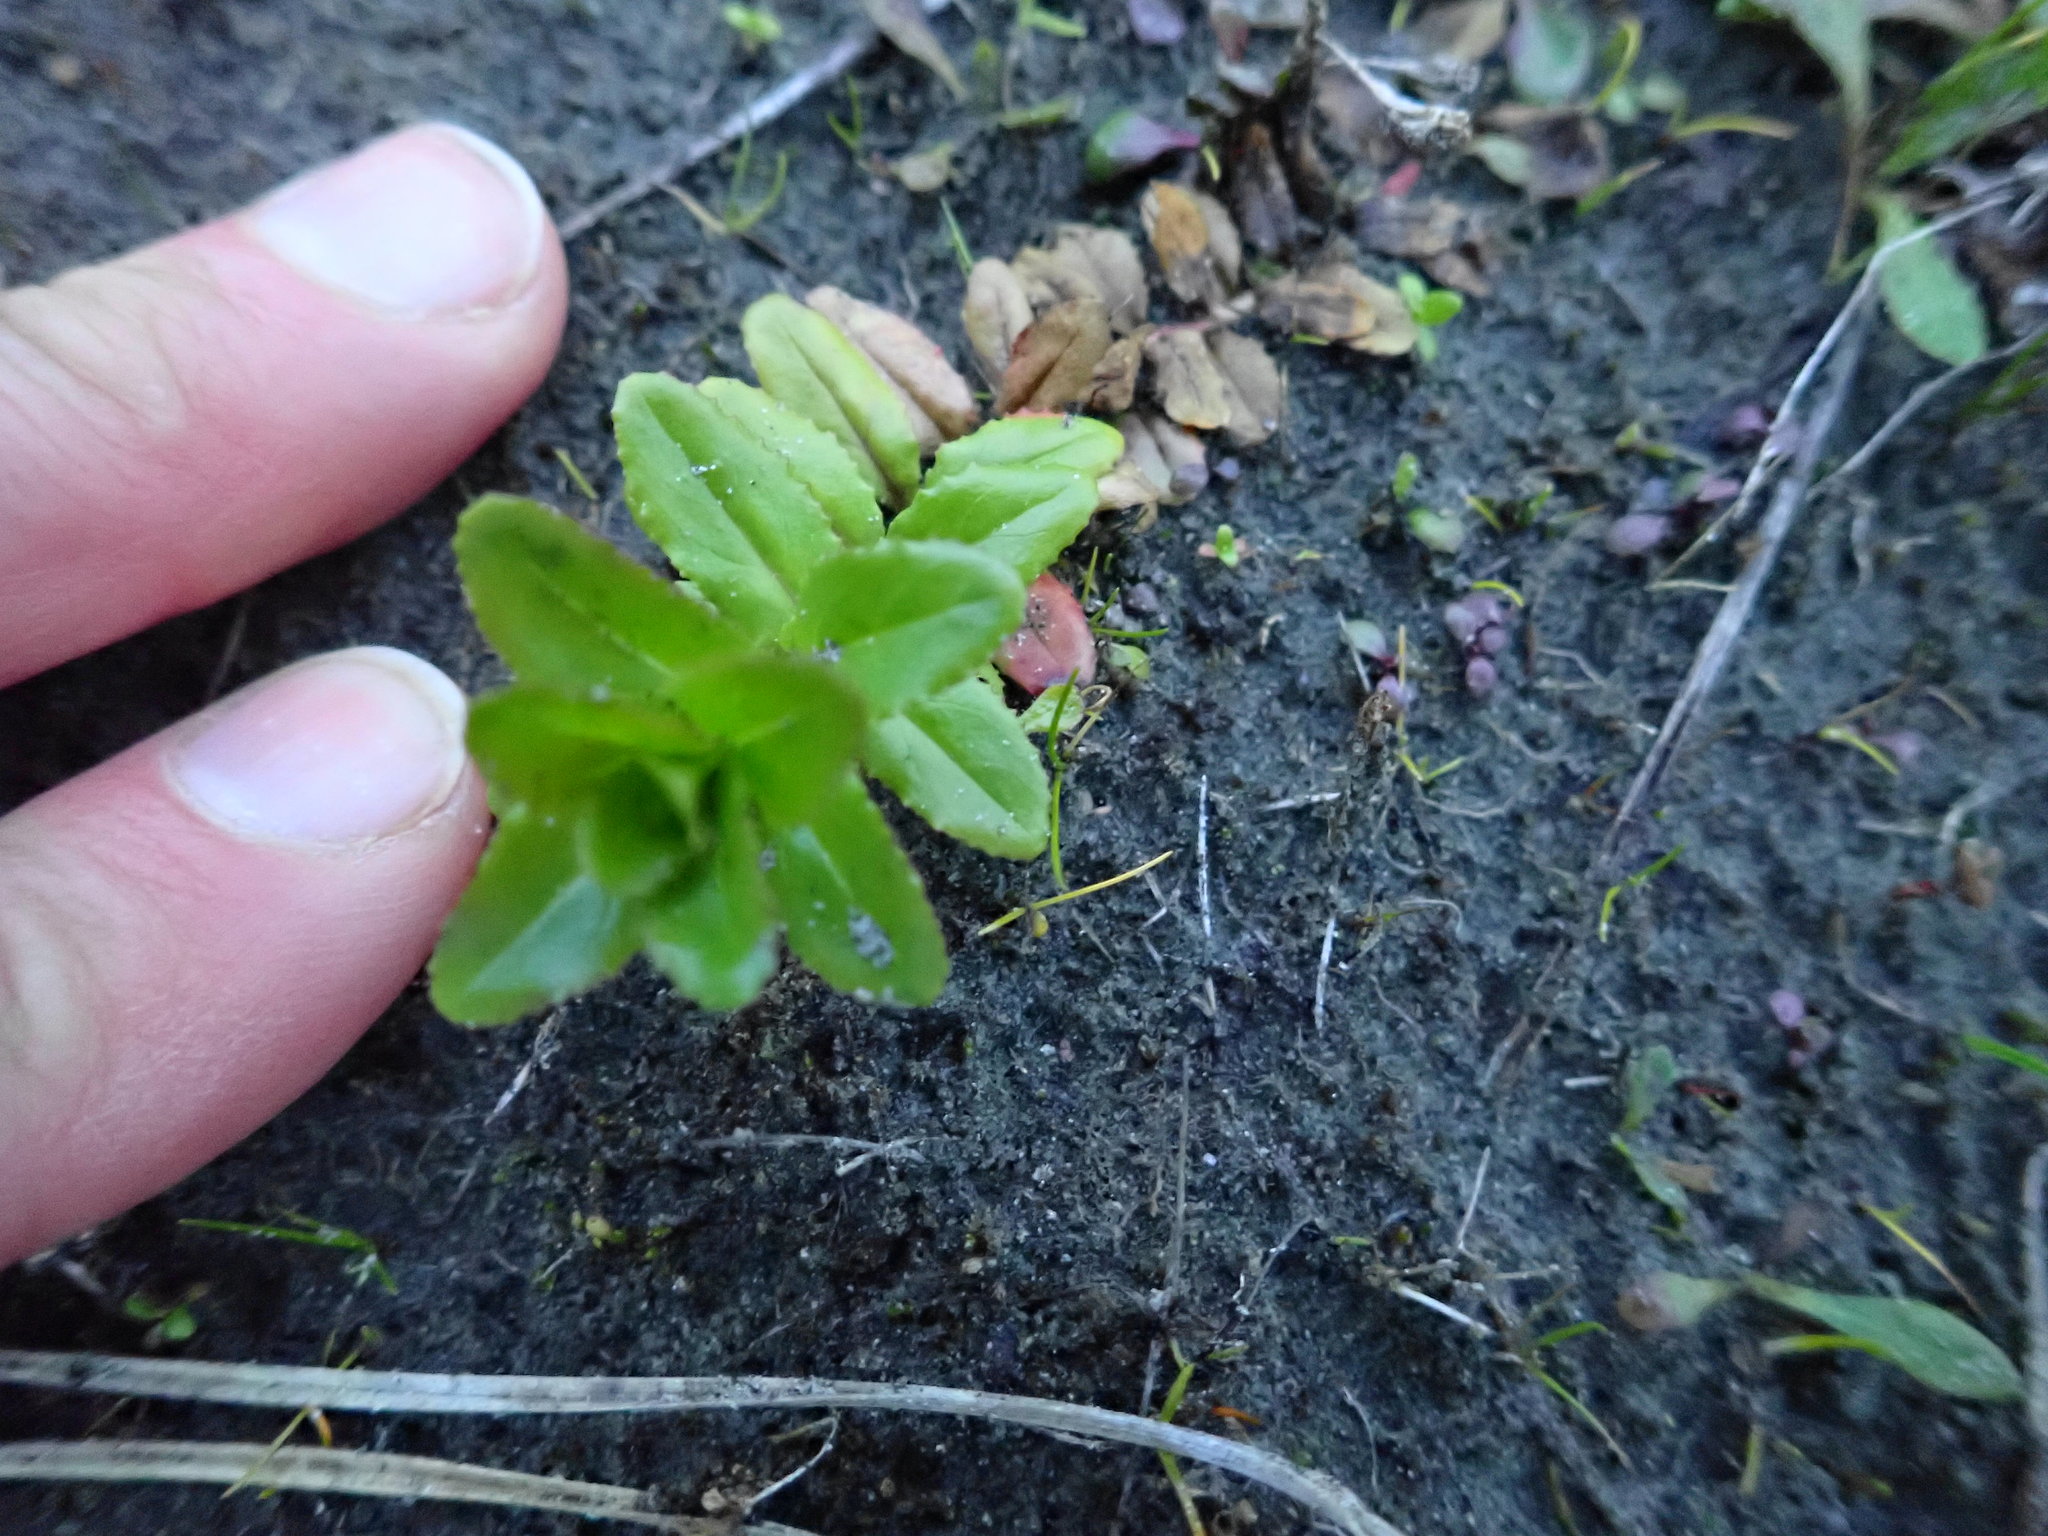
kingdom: Plantae
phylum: Tracheophyta
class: Magnoliopsida
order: Myrtales
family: Onagraceae
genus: Epilobium
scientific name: Epilobium billardiereanum
